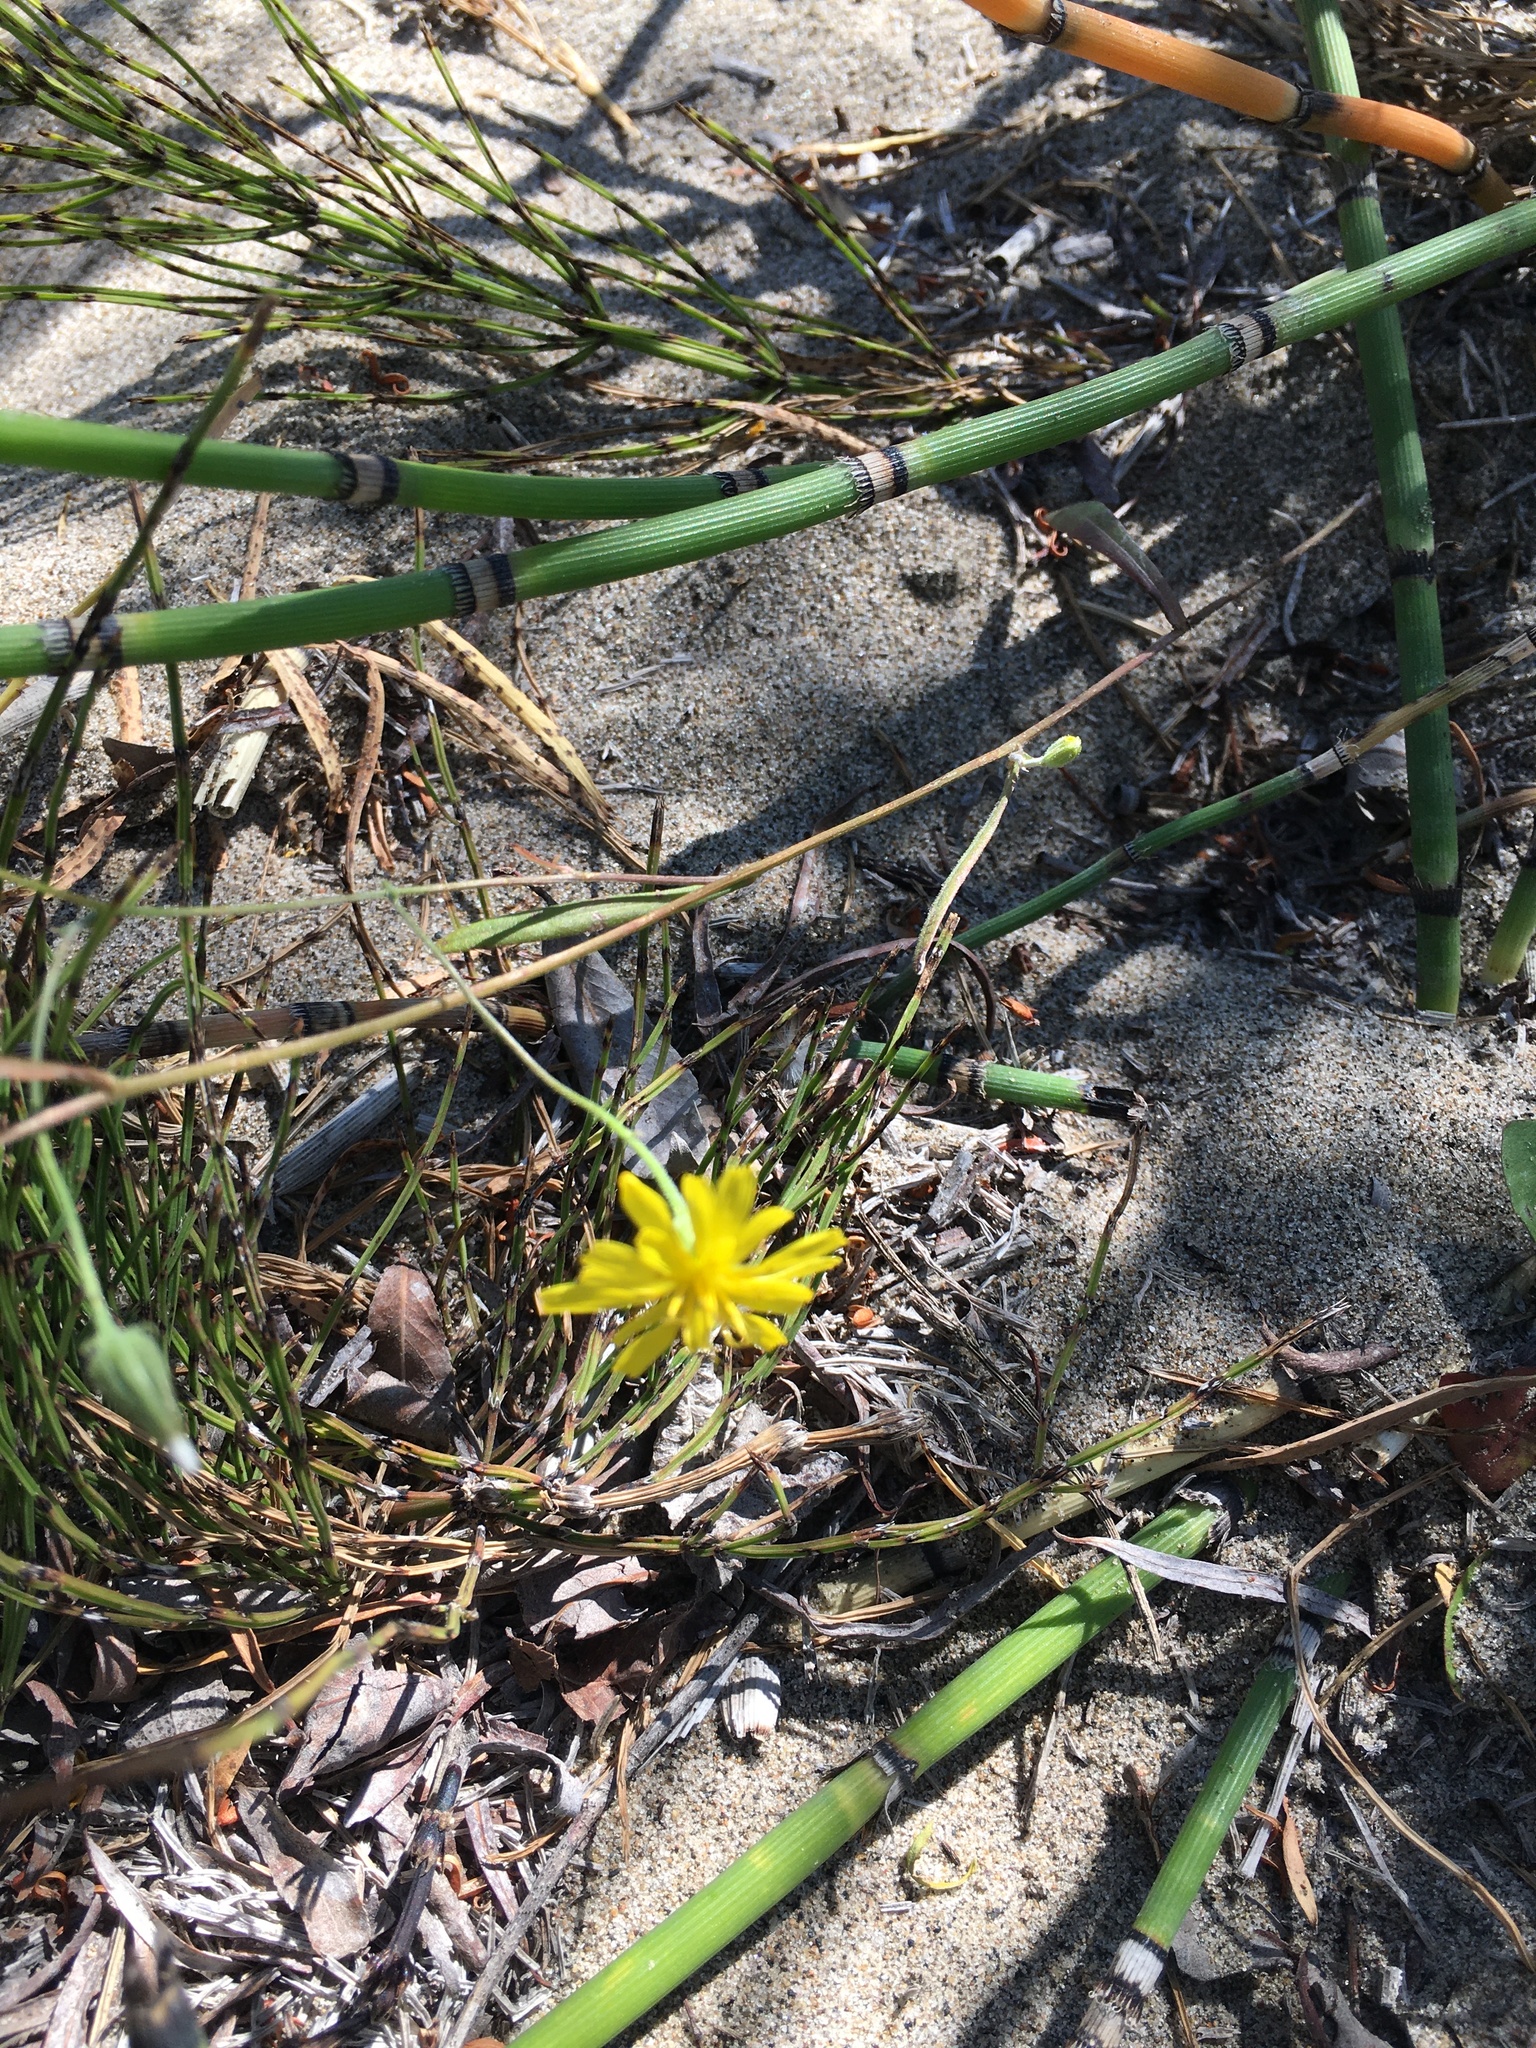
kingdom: Plantae
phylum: Tracheophyta
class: Magnoliopsida
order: Asterales
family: Asteraceae
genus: Crepis
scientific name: Crepis tectorum
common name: Narrow-leaved hawk's-beard
